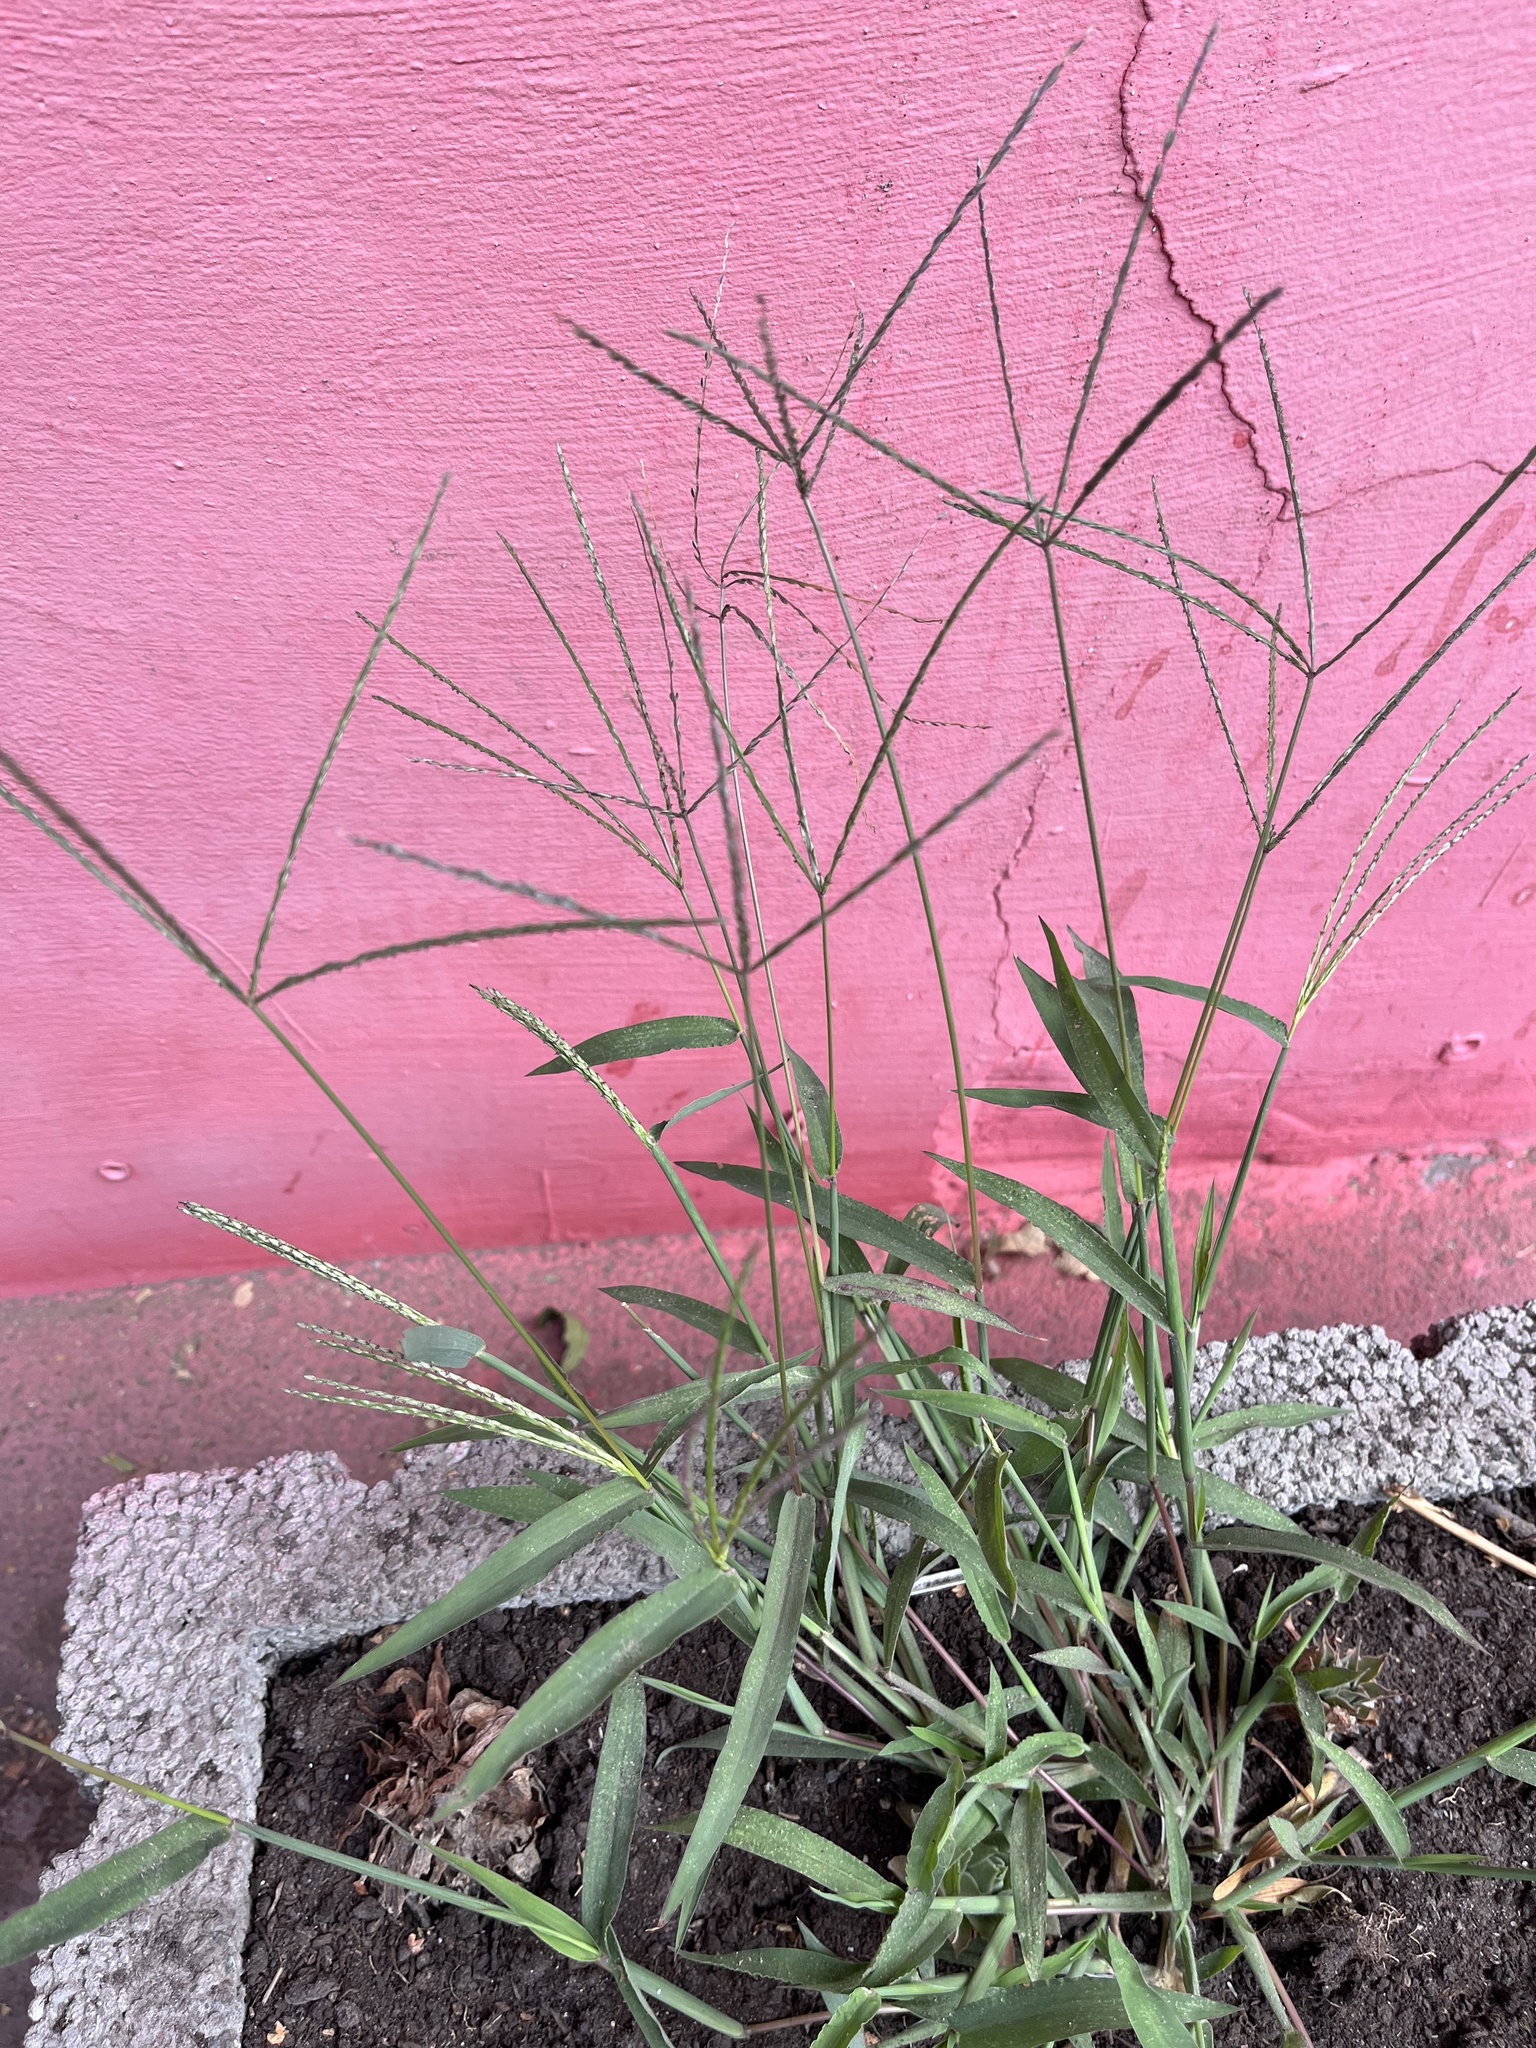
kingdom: Plantae
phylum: Tracheophyta
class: Liliopsida
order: Poales
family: Poaceae
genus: Digitaria
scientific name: Digitaria sanguinalis
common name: Hairy crabgrass
